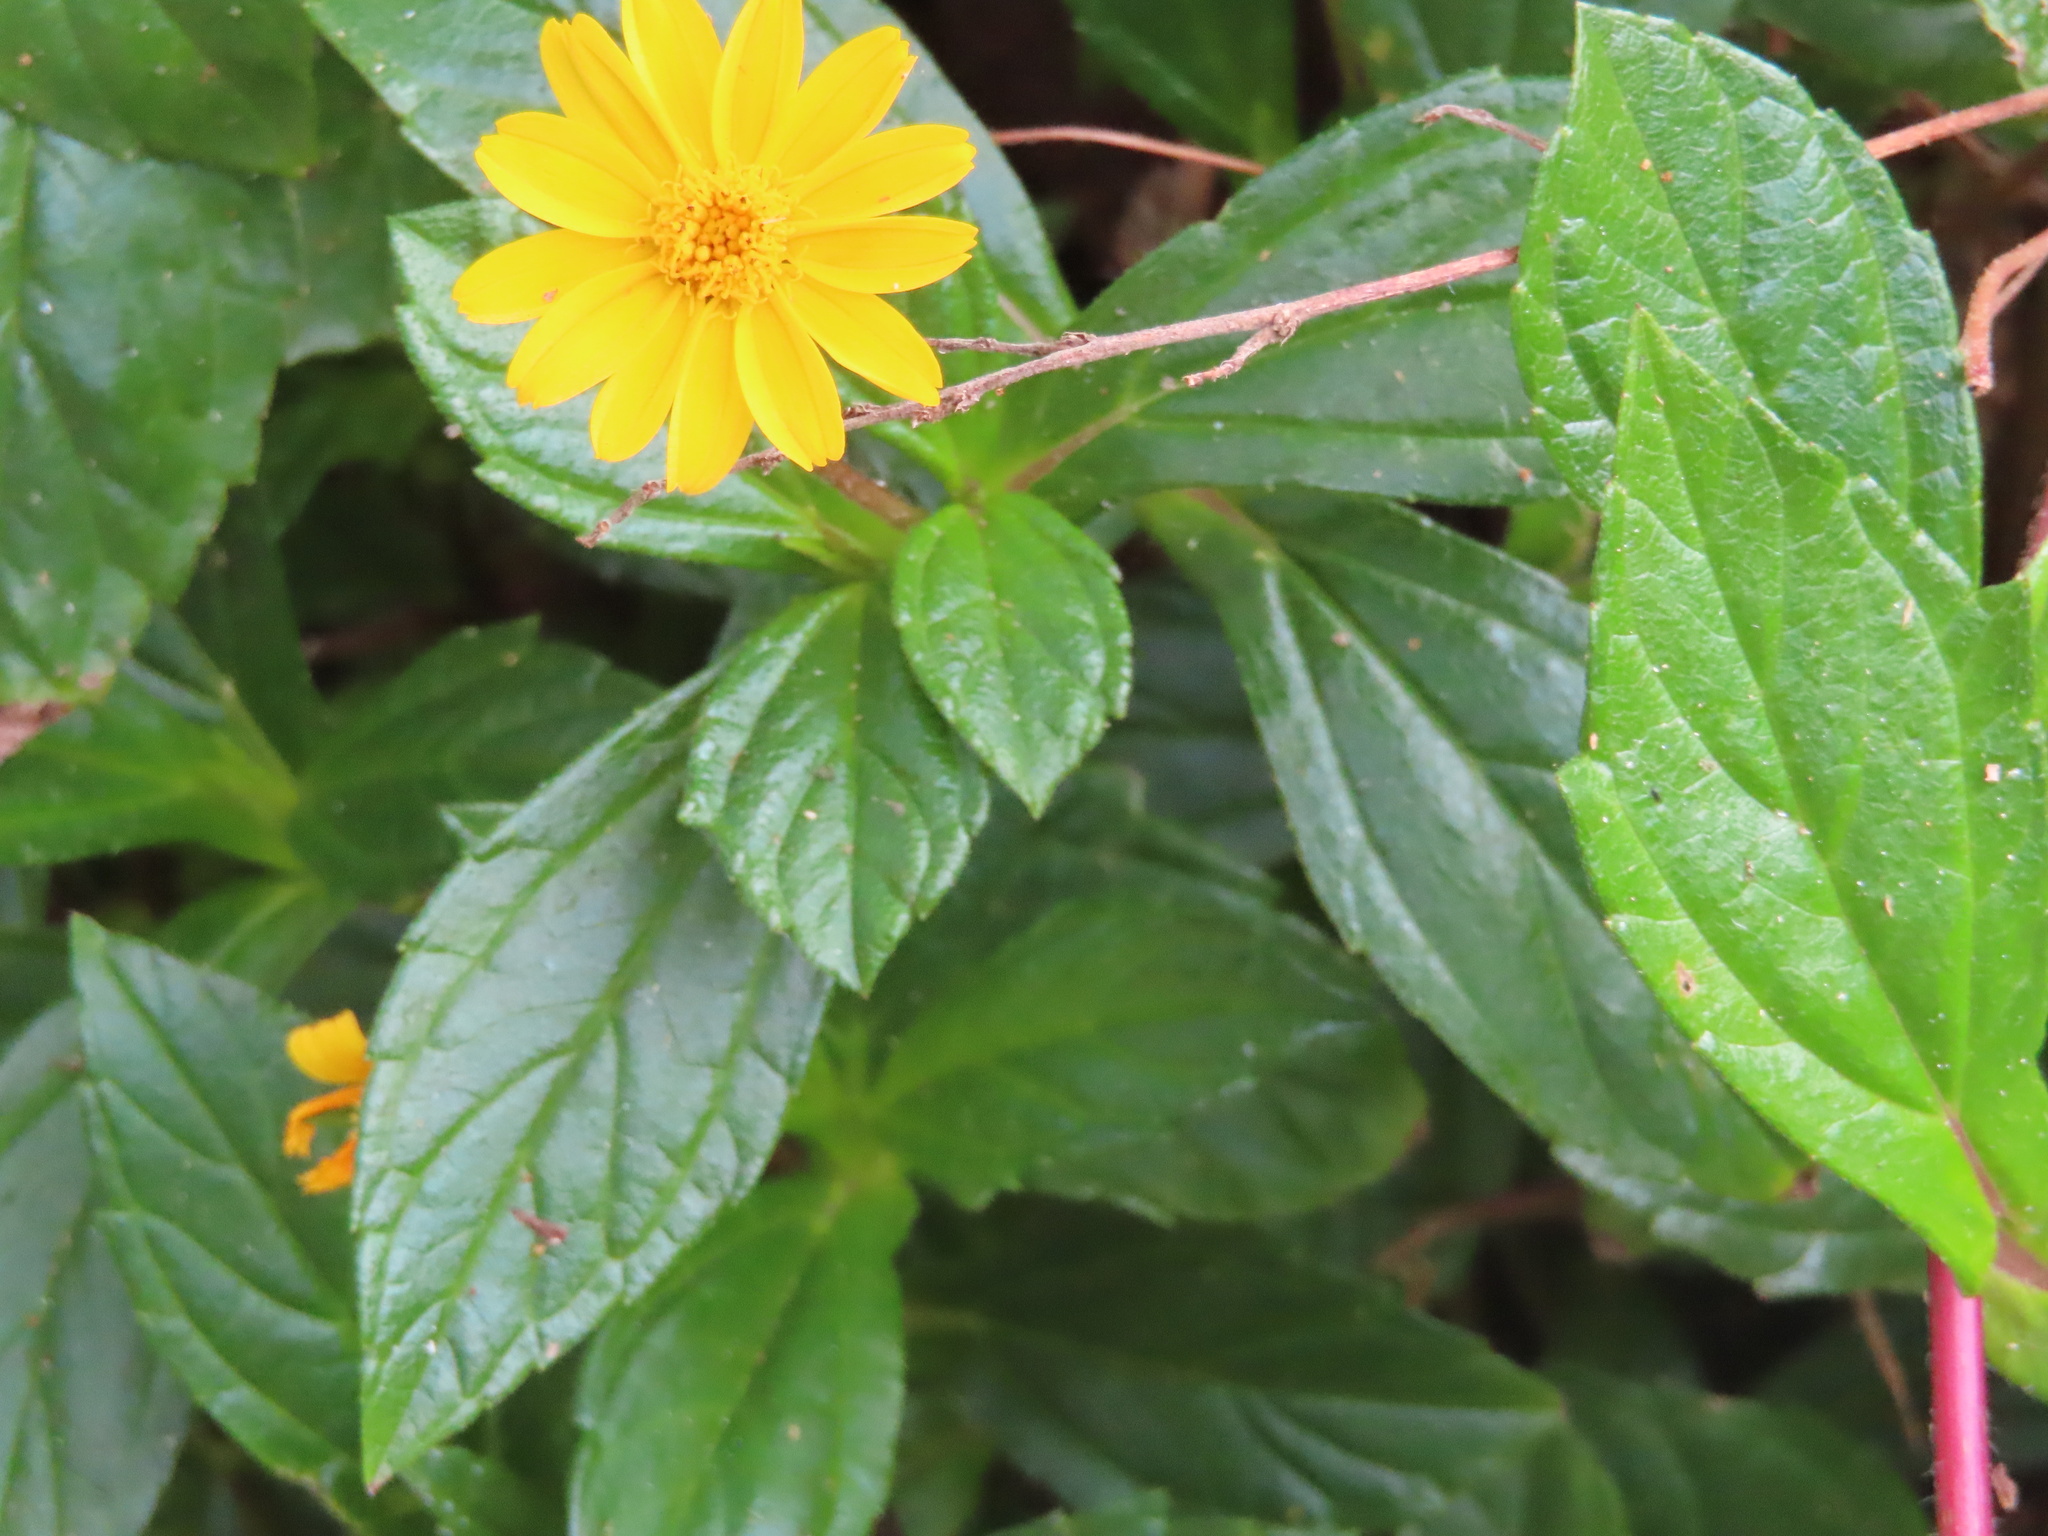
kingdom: Plantae
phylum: Tracheophyta
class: Magnoliopsida
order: Asterales
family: Asteraceae
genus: Sphagneticola
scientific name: Sphagneticola trilobata
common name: Bay biscayne creeping-oxeye
